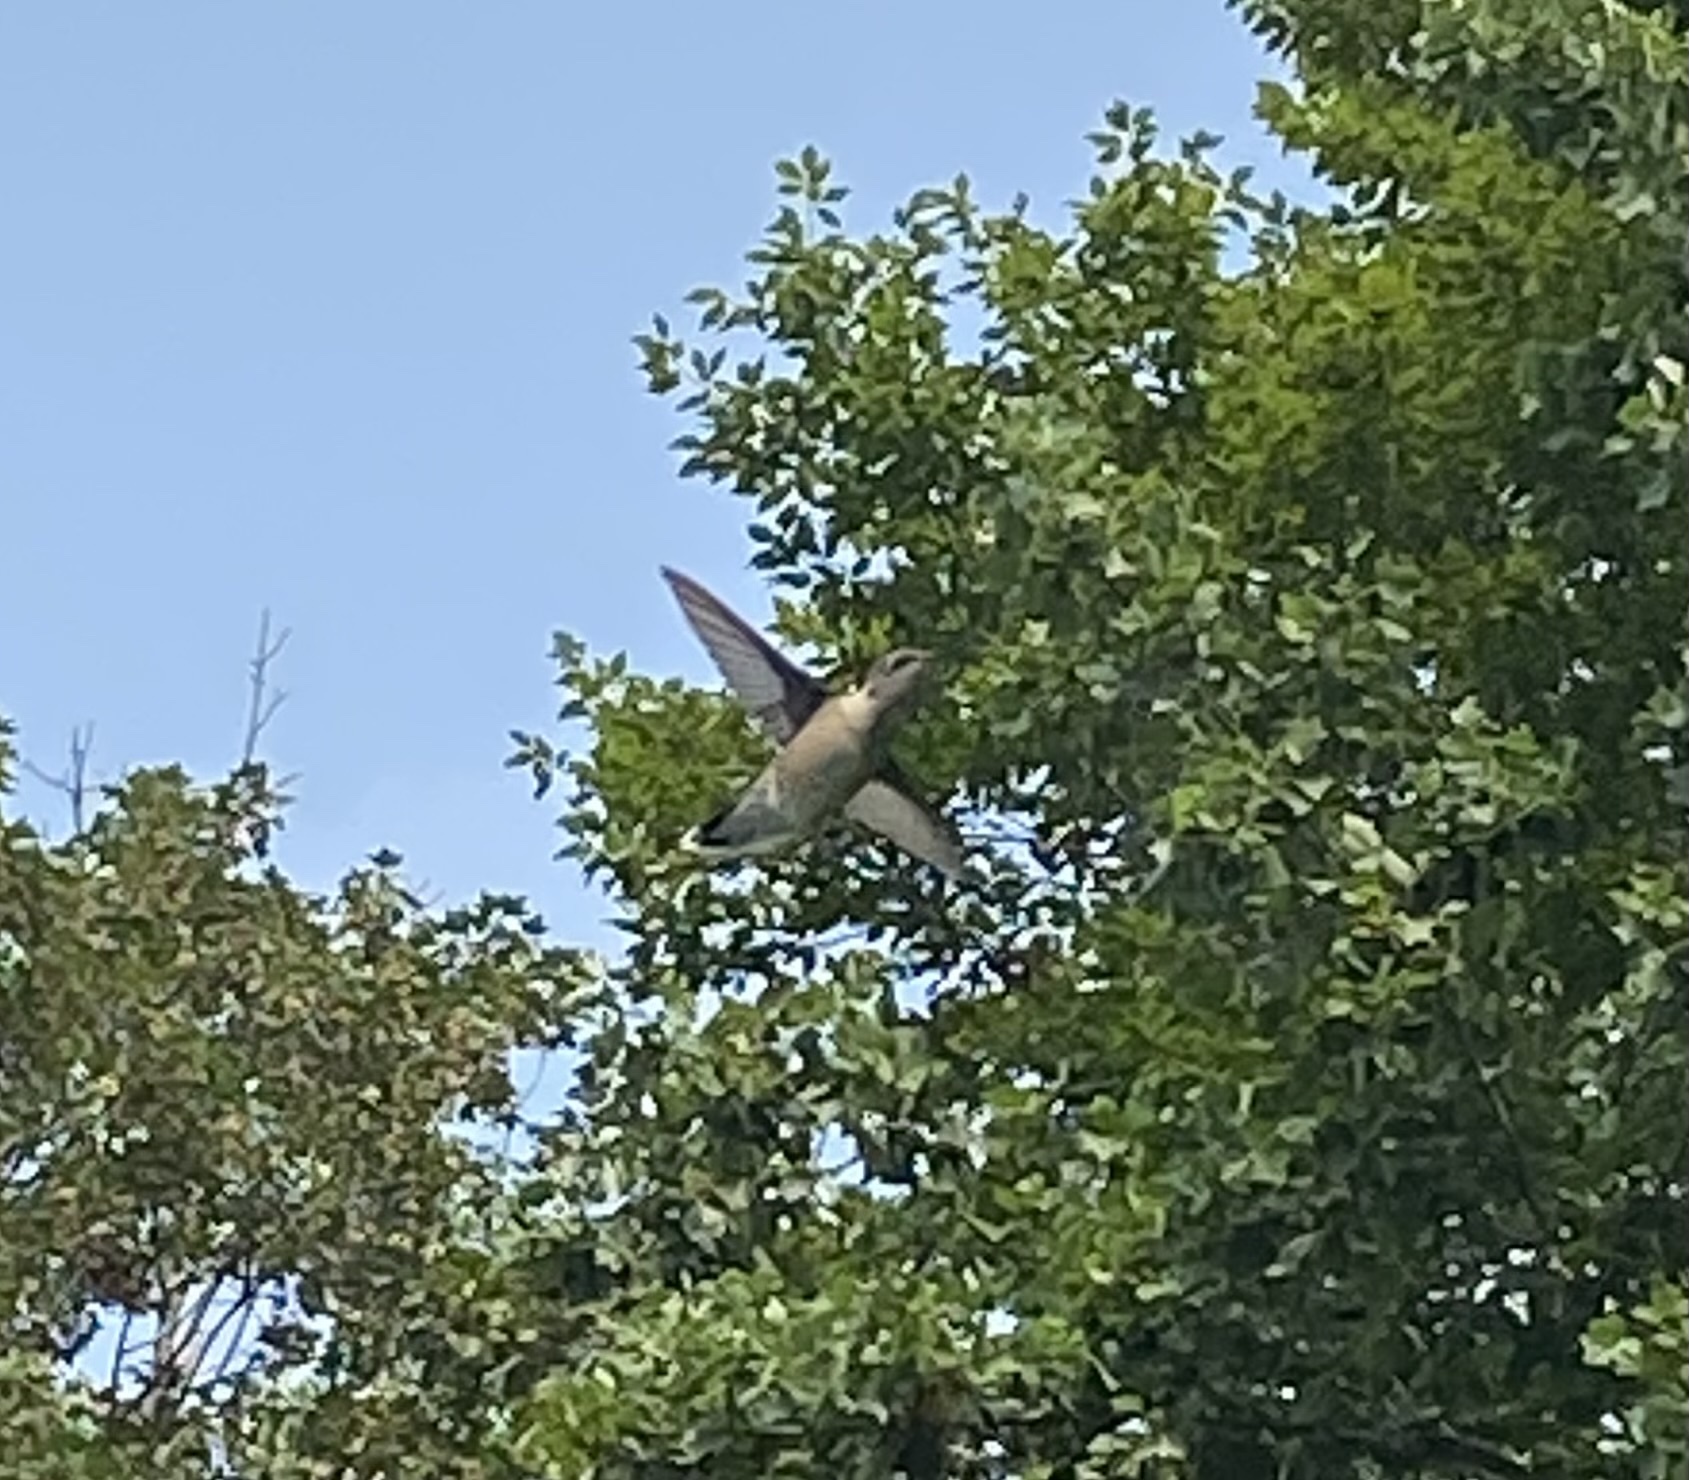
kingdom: Animalia
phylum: Chordata
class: Aves
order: Apodiformes
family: Trochilidae
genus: Archilochus
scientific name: Archilochus colubris
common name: Ruby-throated hummingbird
